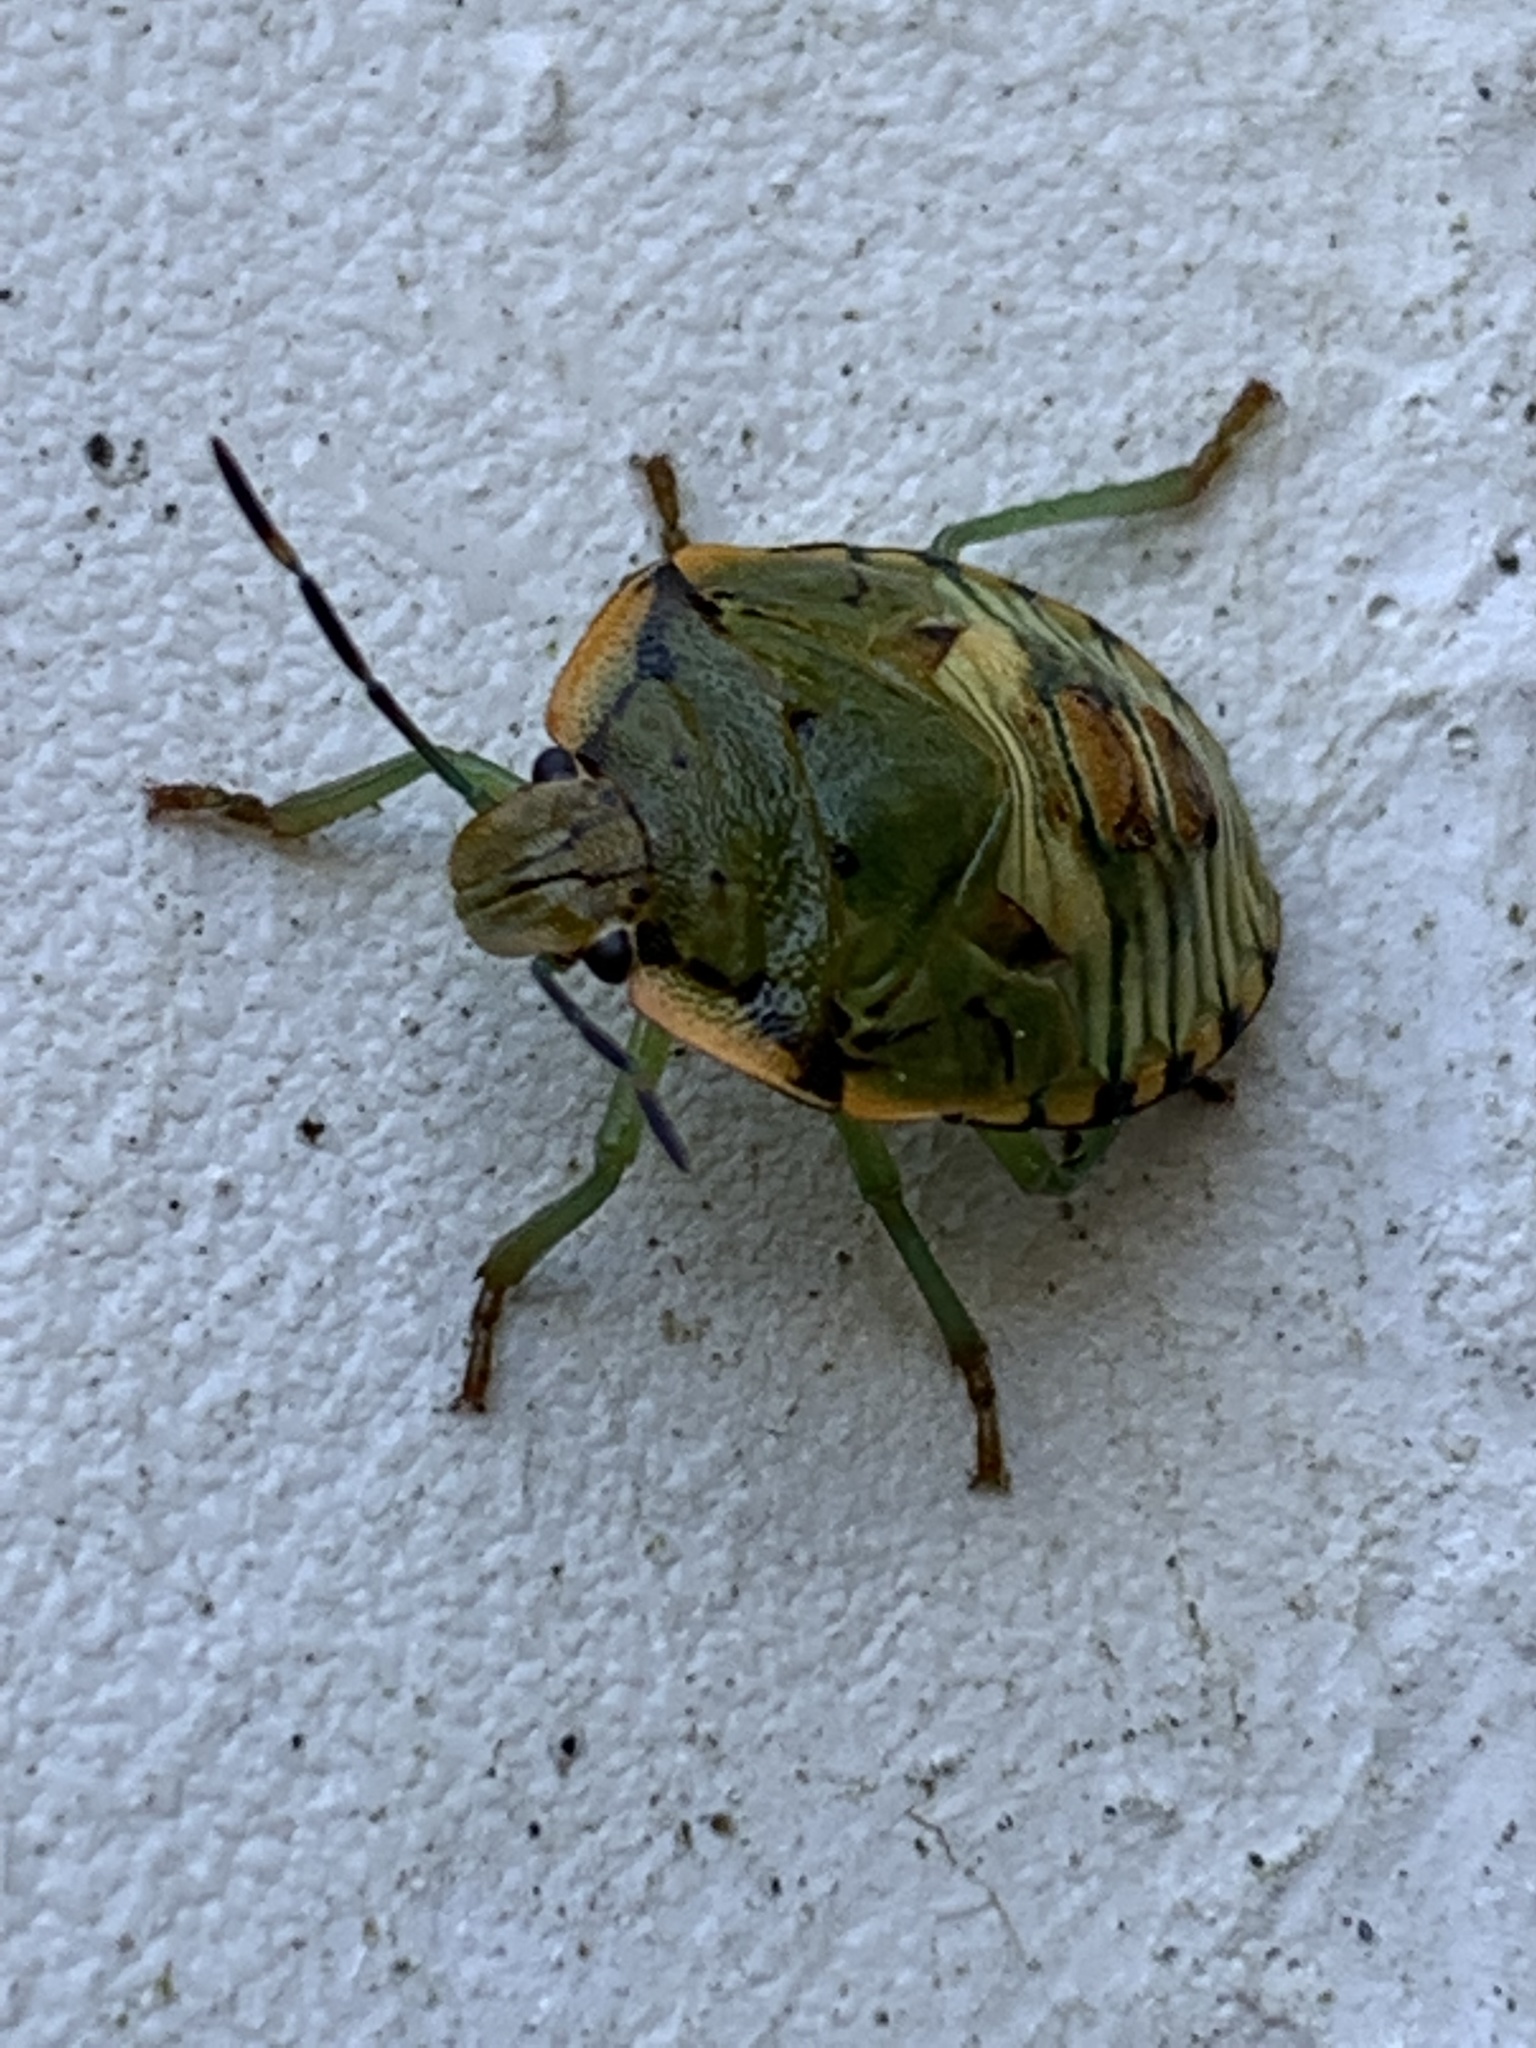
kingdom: Animalia
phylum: Arthropoda
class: Insecta
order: Hemiptera
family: Pentatomidae
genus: Chinavia
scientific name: Chinavia hilaris
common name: Green stink bug
